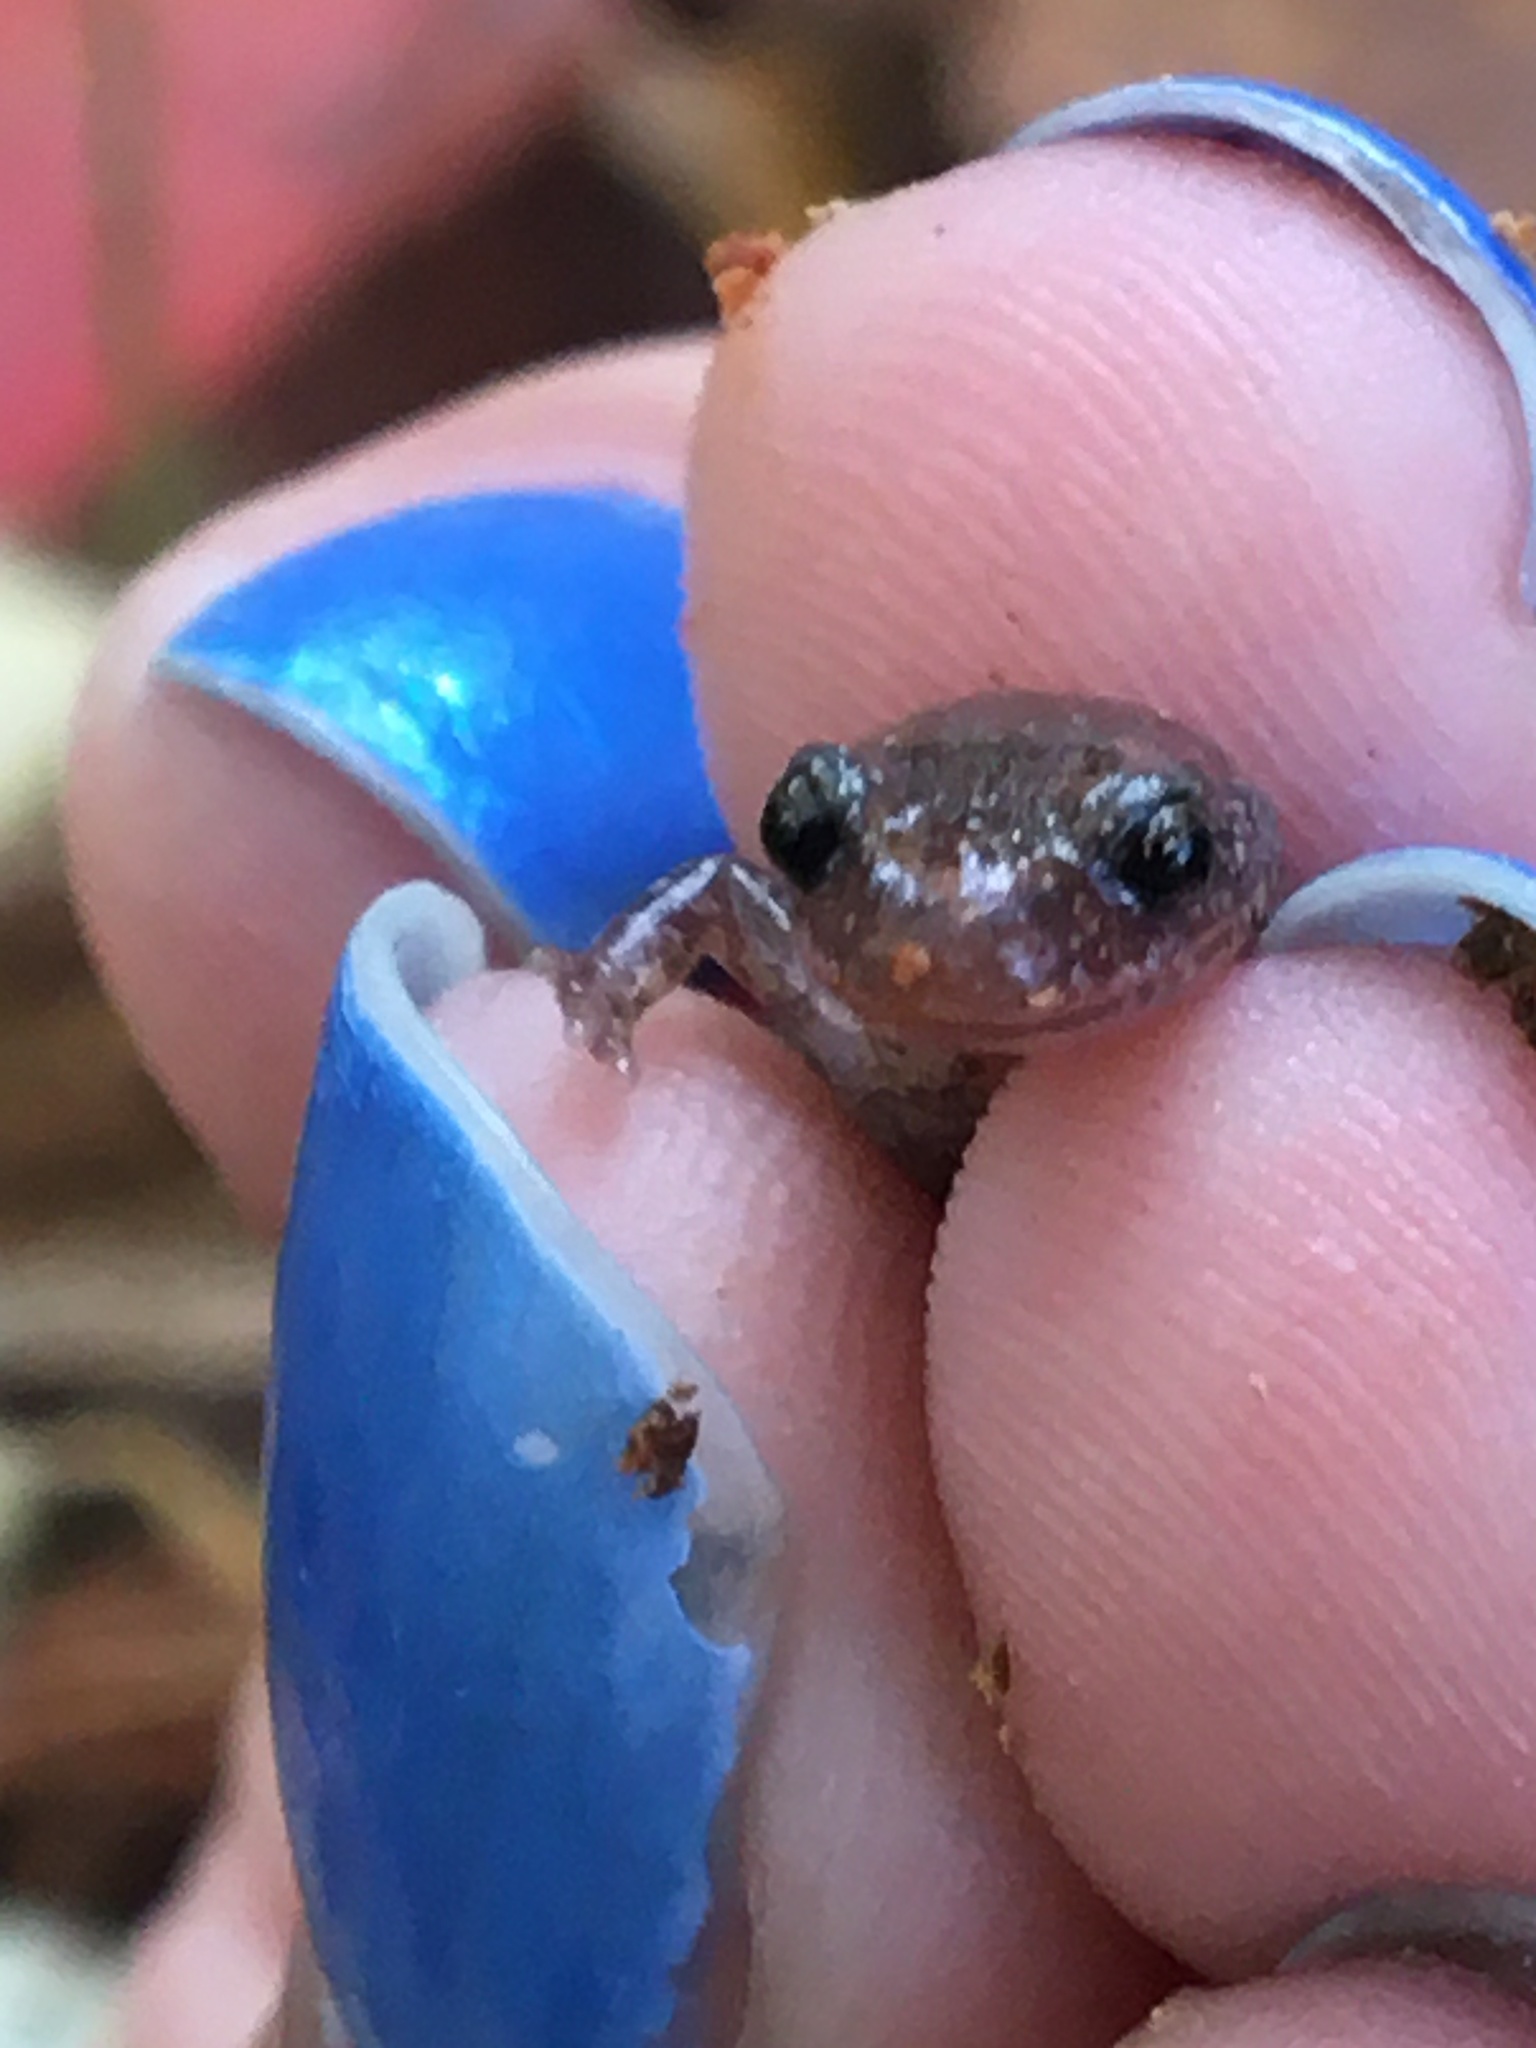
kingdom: Animalia
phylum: Chordata
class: Amphibia
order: Caudata
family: Plethodontidae
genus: Plethodon
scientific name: Plethodon cinereus
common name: Redback salamander
